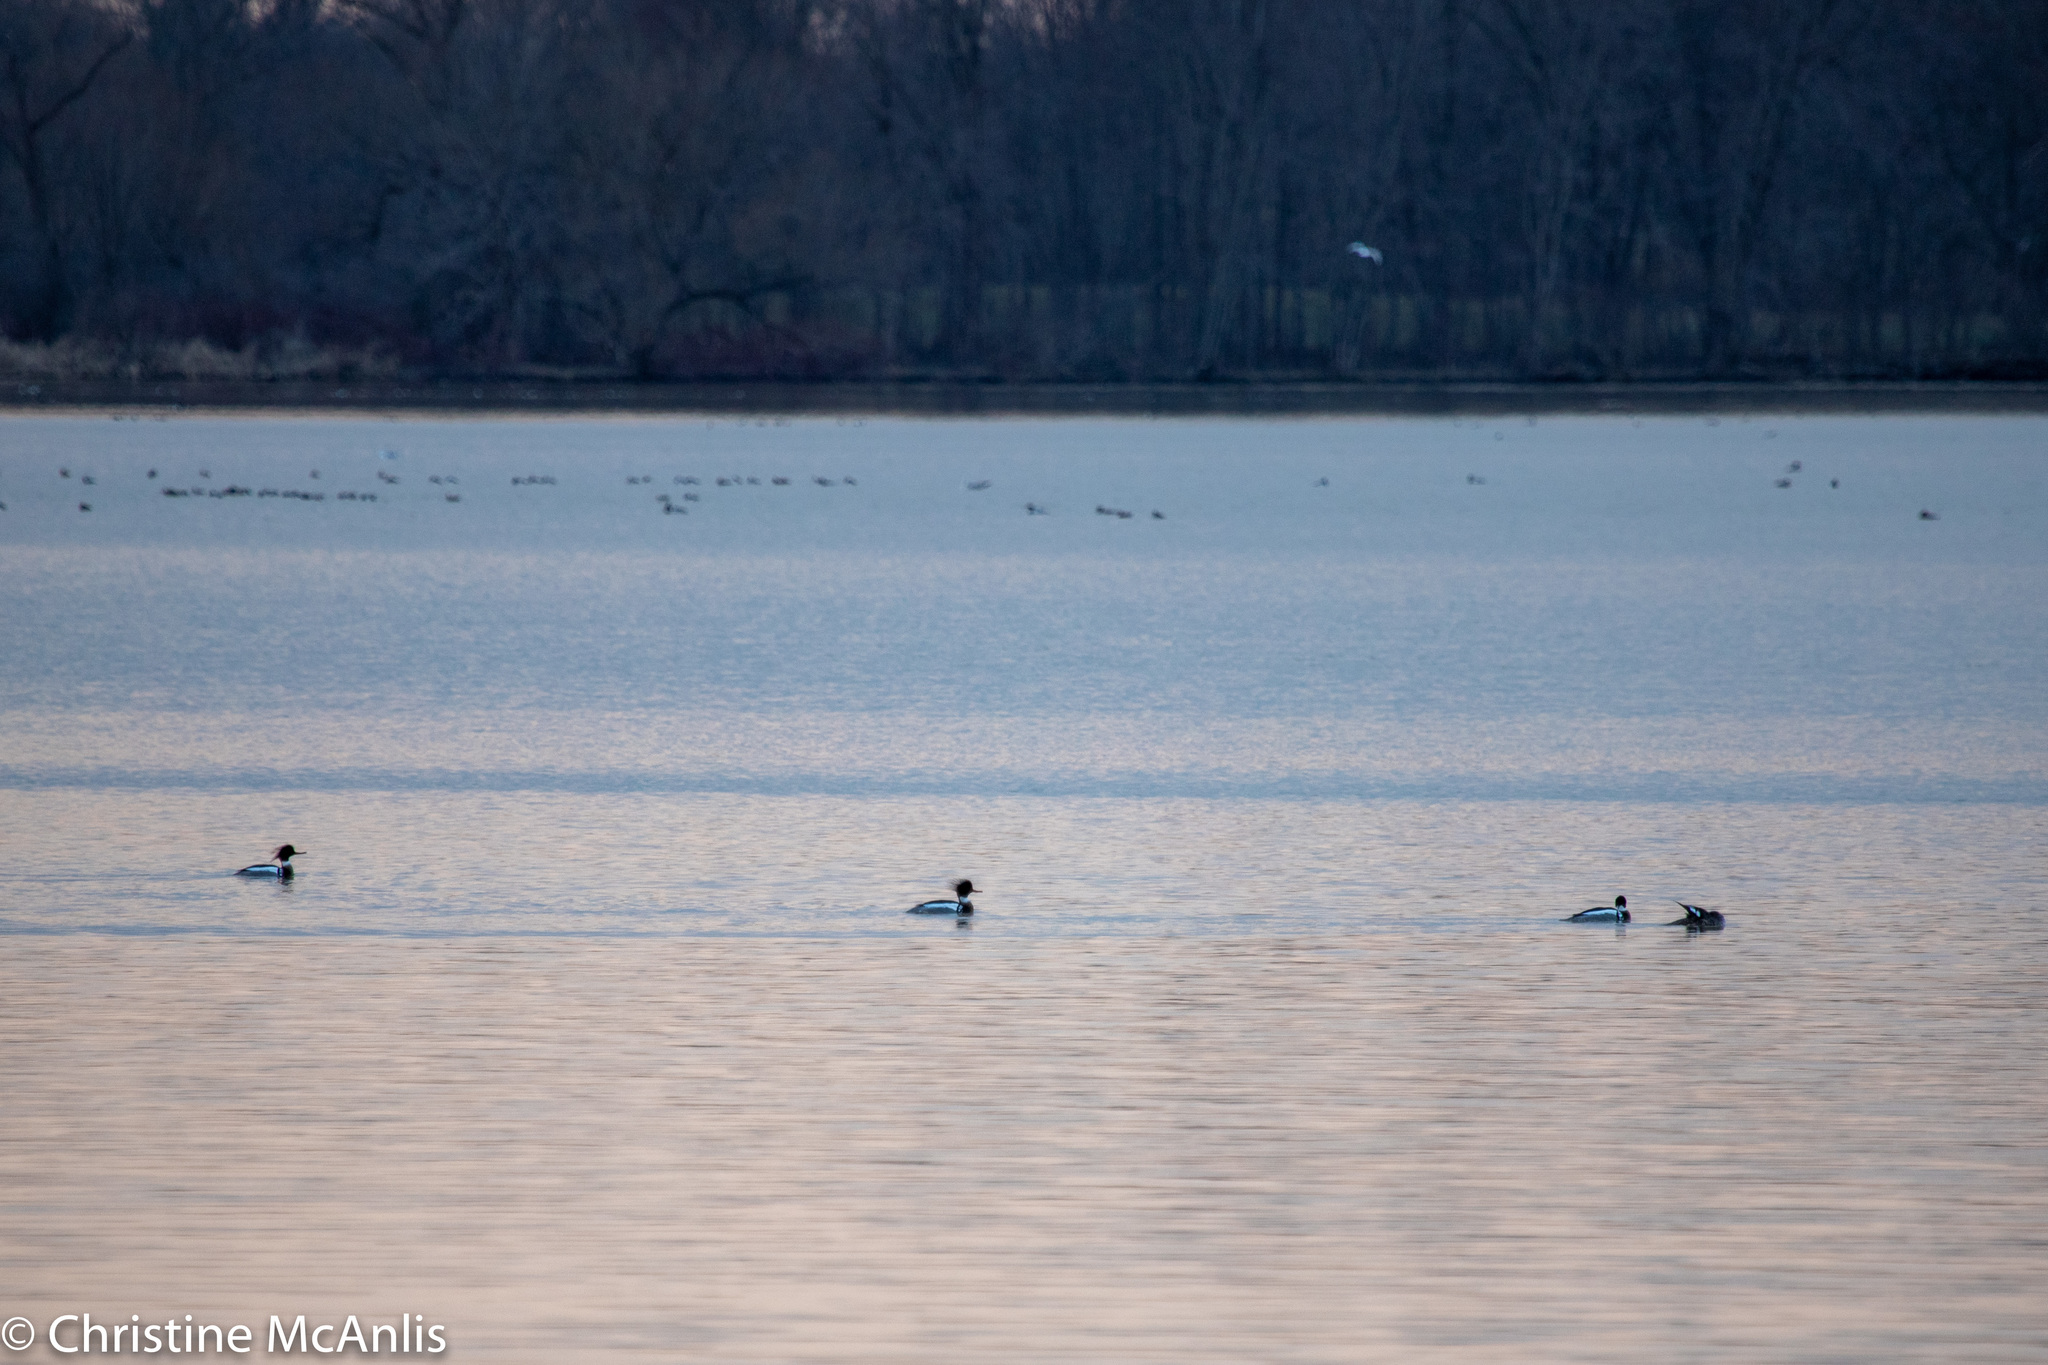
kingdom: Animalia
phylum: Chordata
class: Aves
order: Anseriformes
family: Anatidae
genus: Mergus
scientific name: Mergus serrator
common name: Red-breasted merganser
